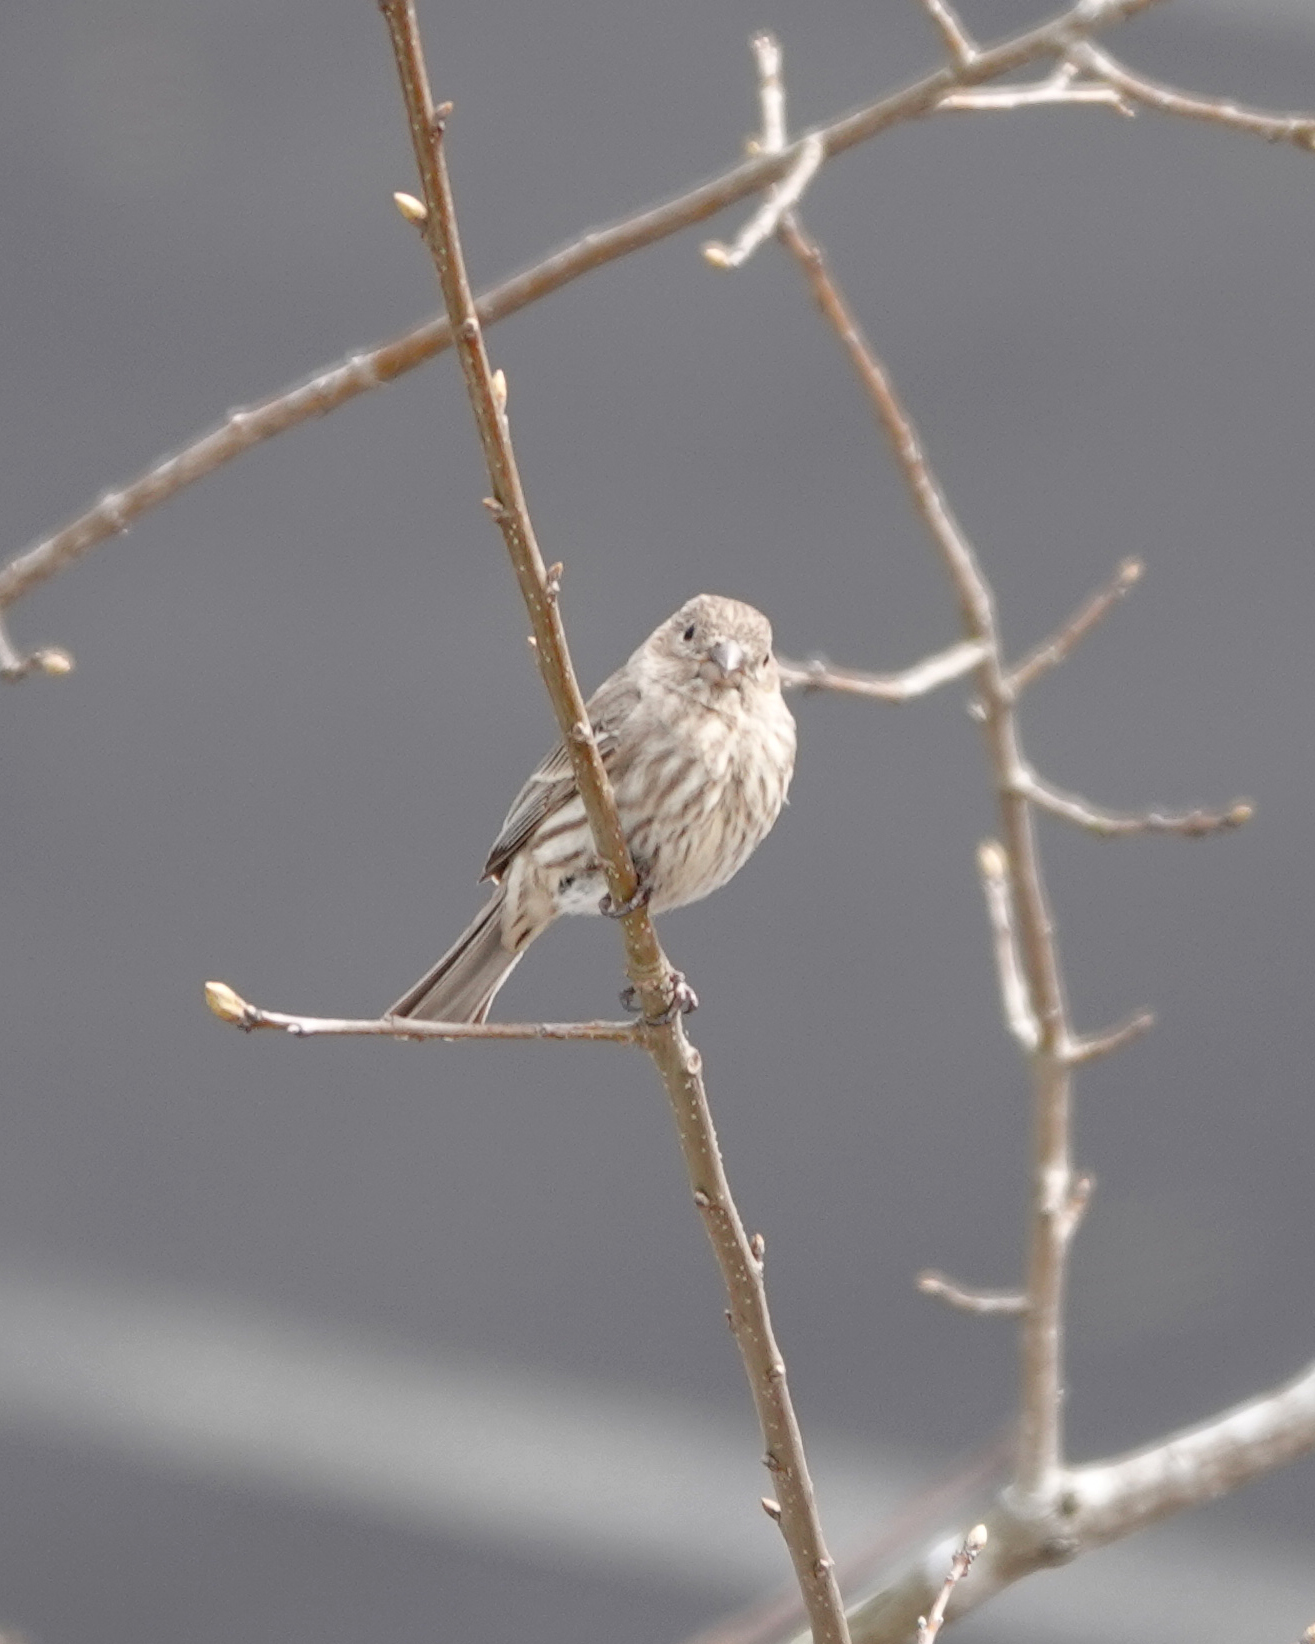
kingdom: Animalia
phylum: Chordata
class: Aves
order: Passeriformes
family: Fringillidae
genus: Haemorhous
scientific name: Haemorhous mexicanus
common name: House finch
